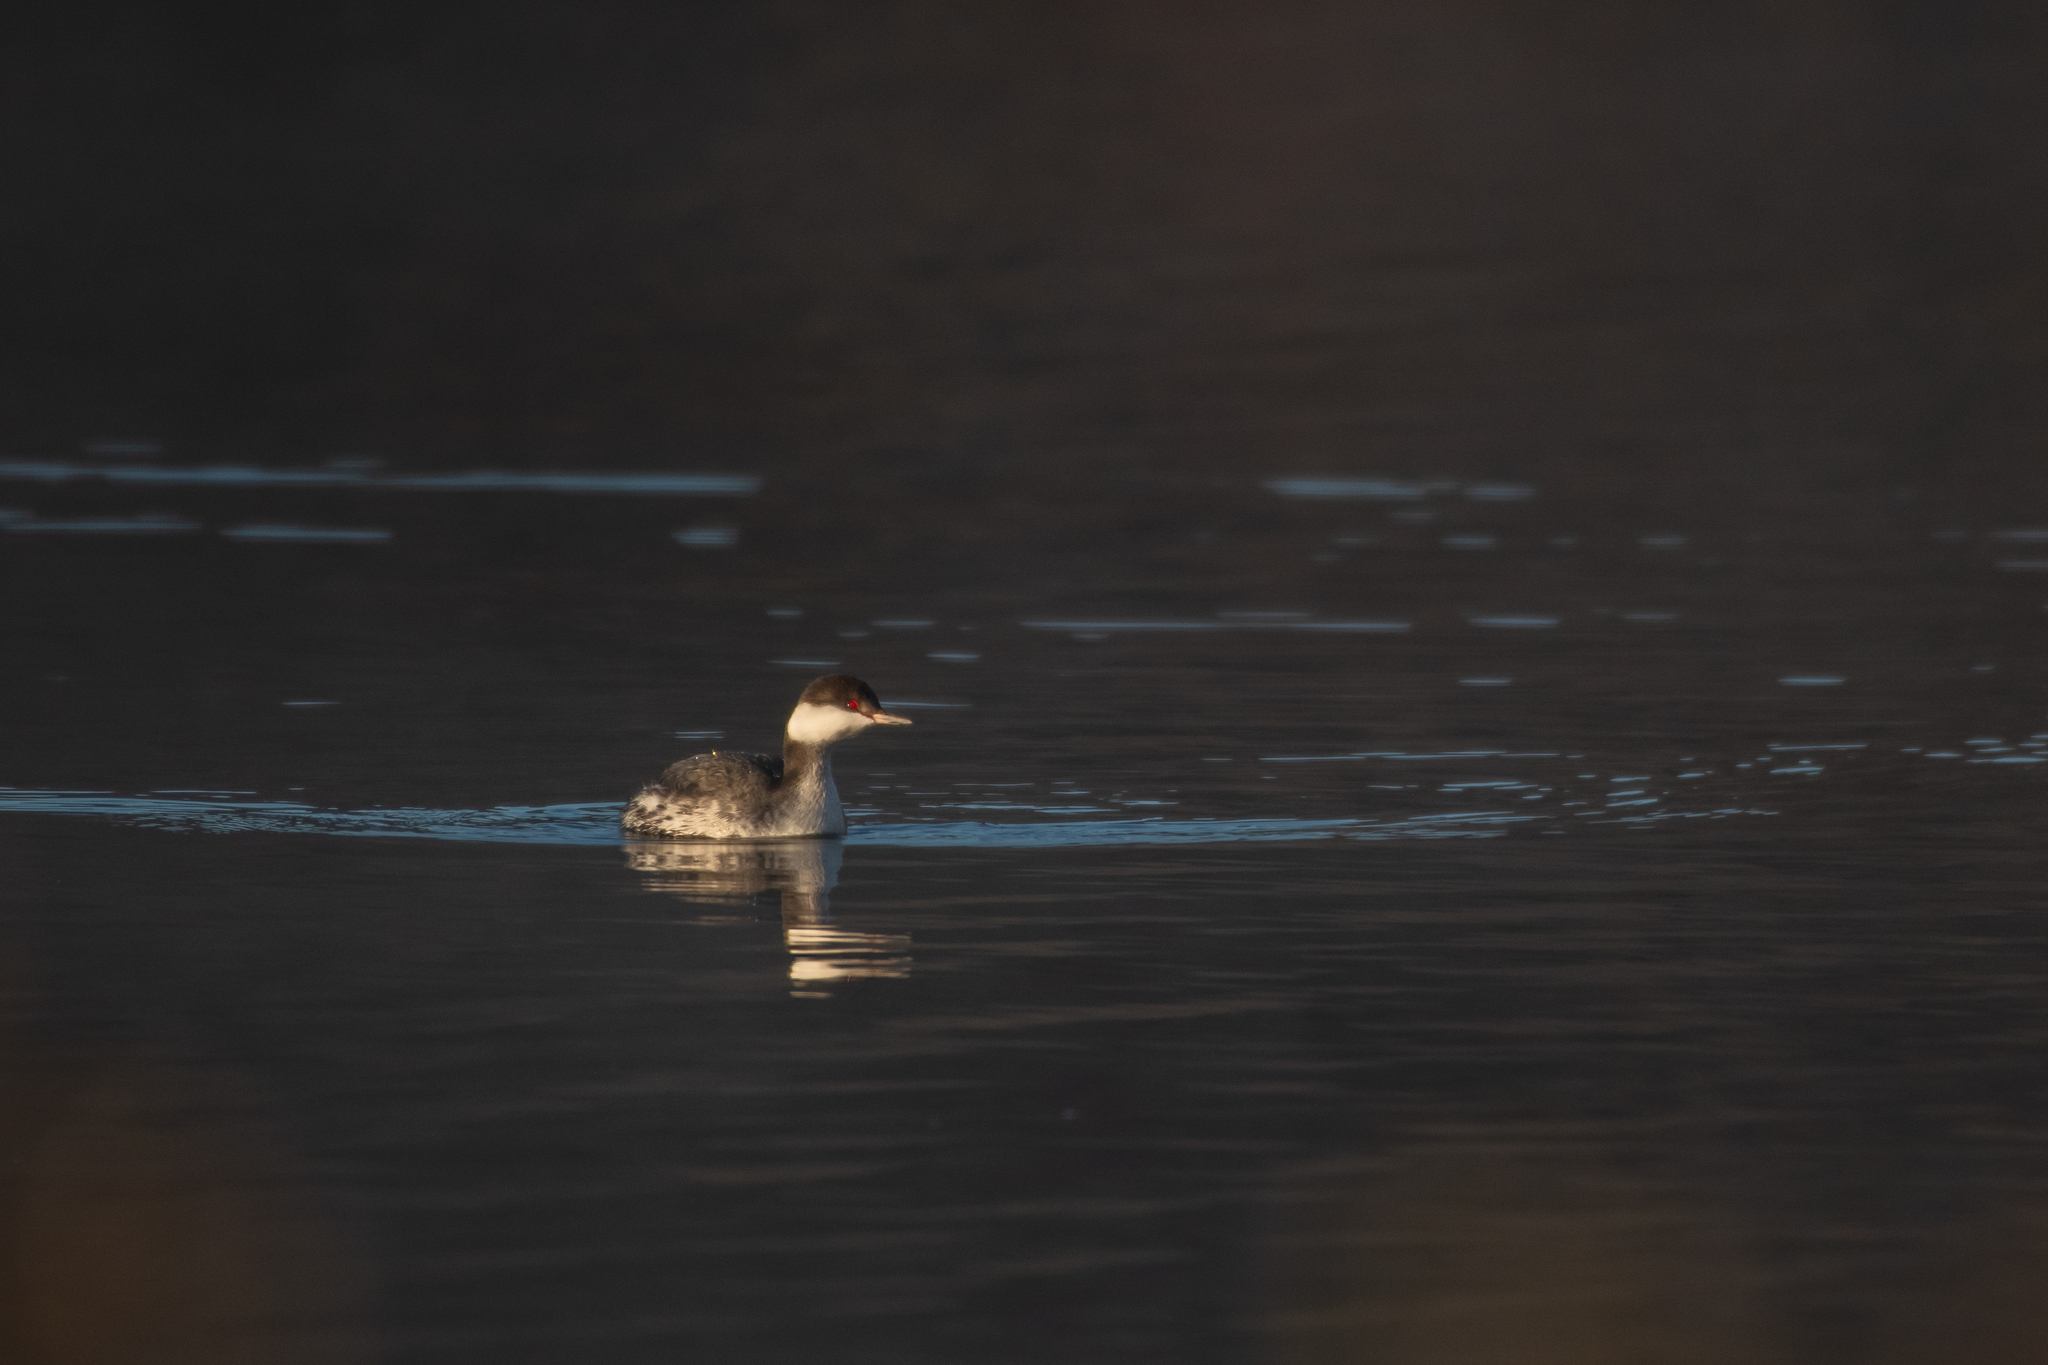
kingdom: Animalia
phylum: Chordata
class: Aves
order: Podicipediformes
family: Podicipedidae
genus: Podiceps
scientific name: Podiceps auritus
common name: Horned grebe
